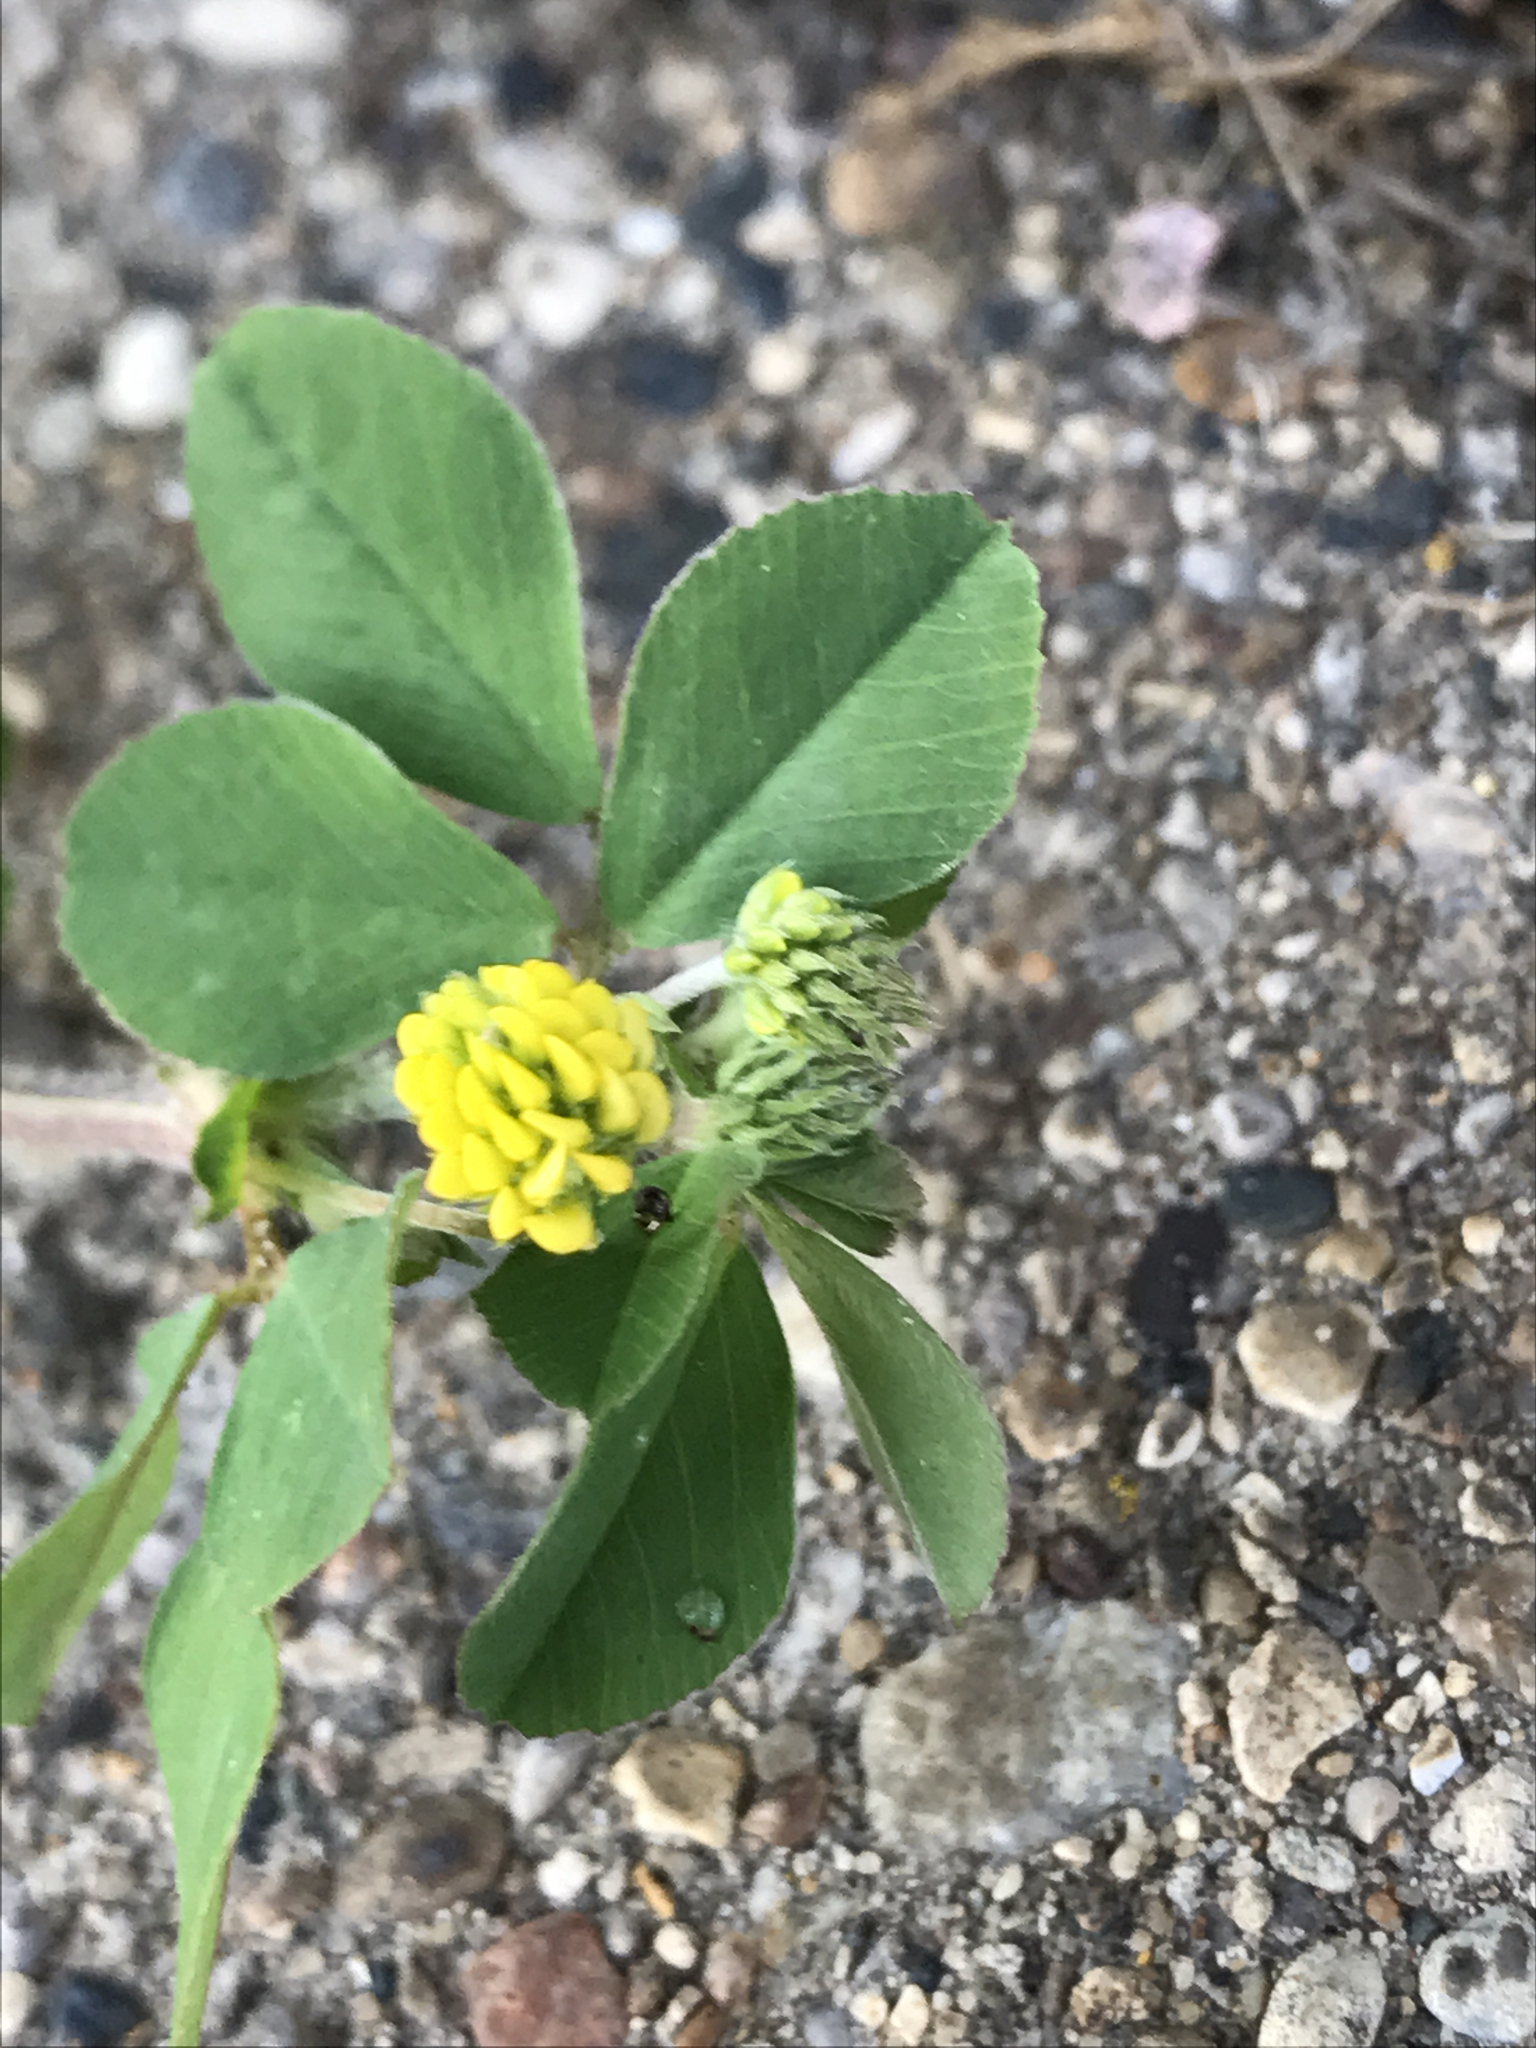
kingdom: Plantae
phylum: Tracheophyta
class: Magnoliopsida
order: Fabales
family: Fabaceae
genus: Medicago
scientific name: Medicago lupulina
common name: Black medick
